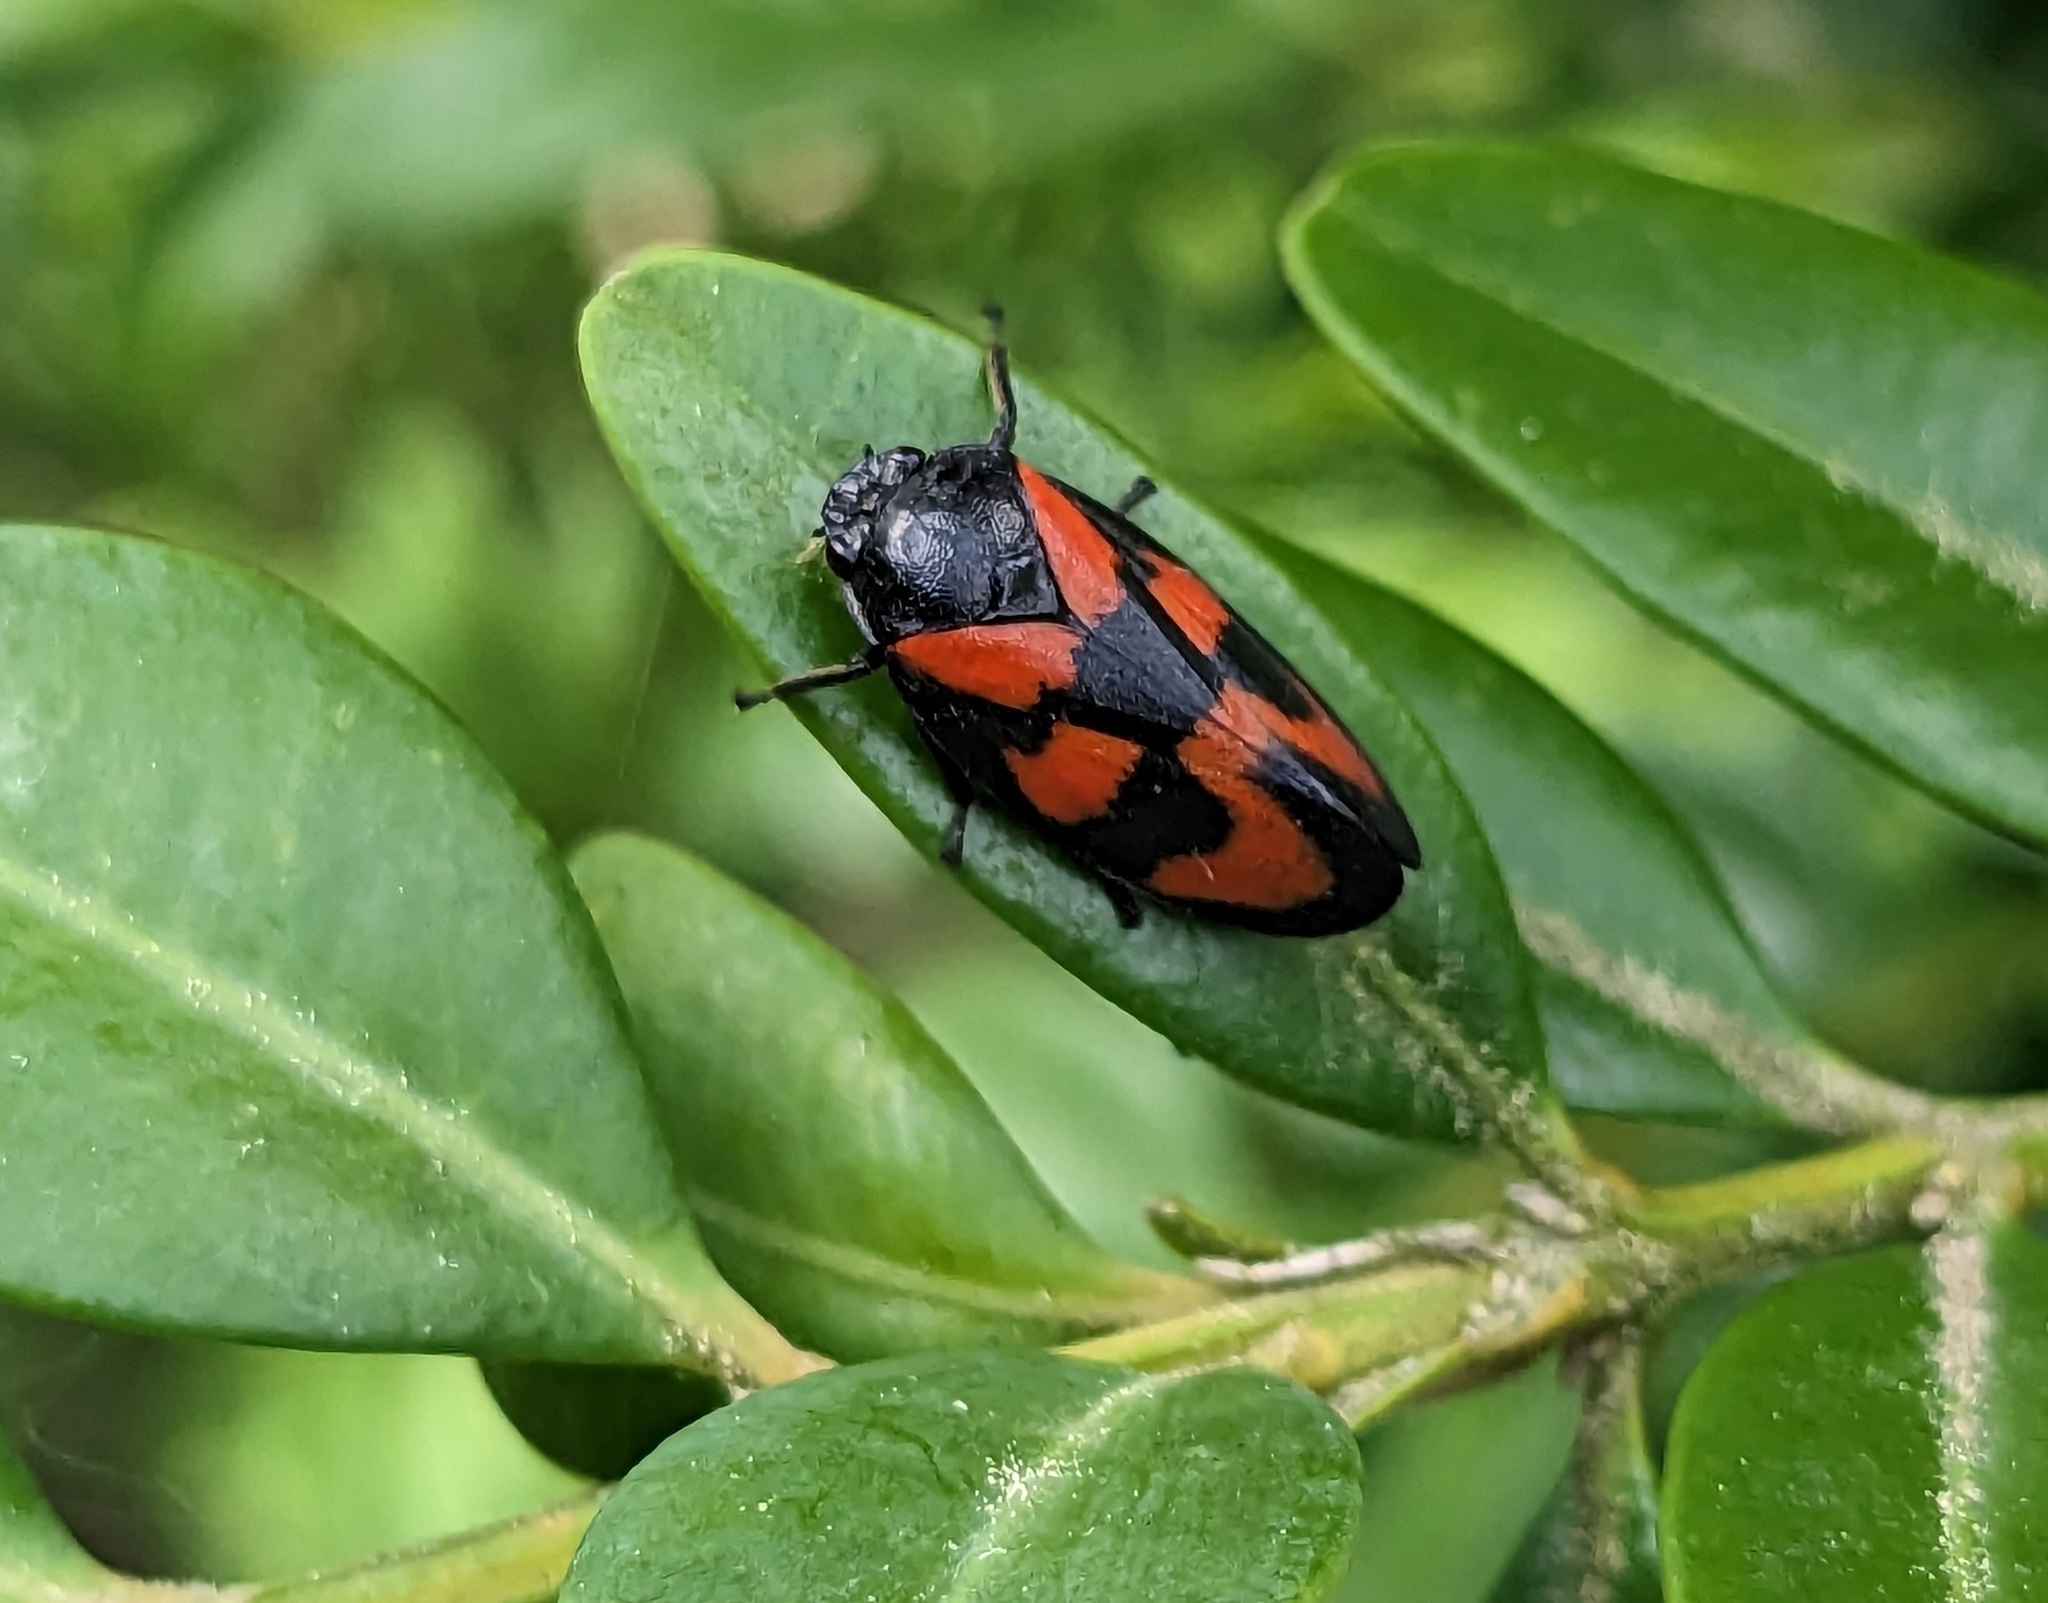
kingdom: Animalia
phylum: Arthropoda
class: Insecta
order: Hemiptera
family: Cercopidae
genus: Cercopis
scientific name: Cercopis vulnerata
